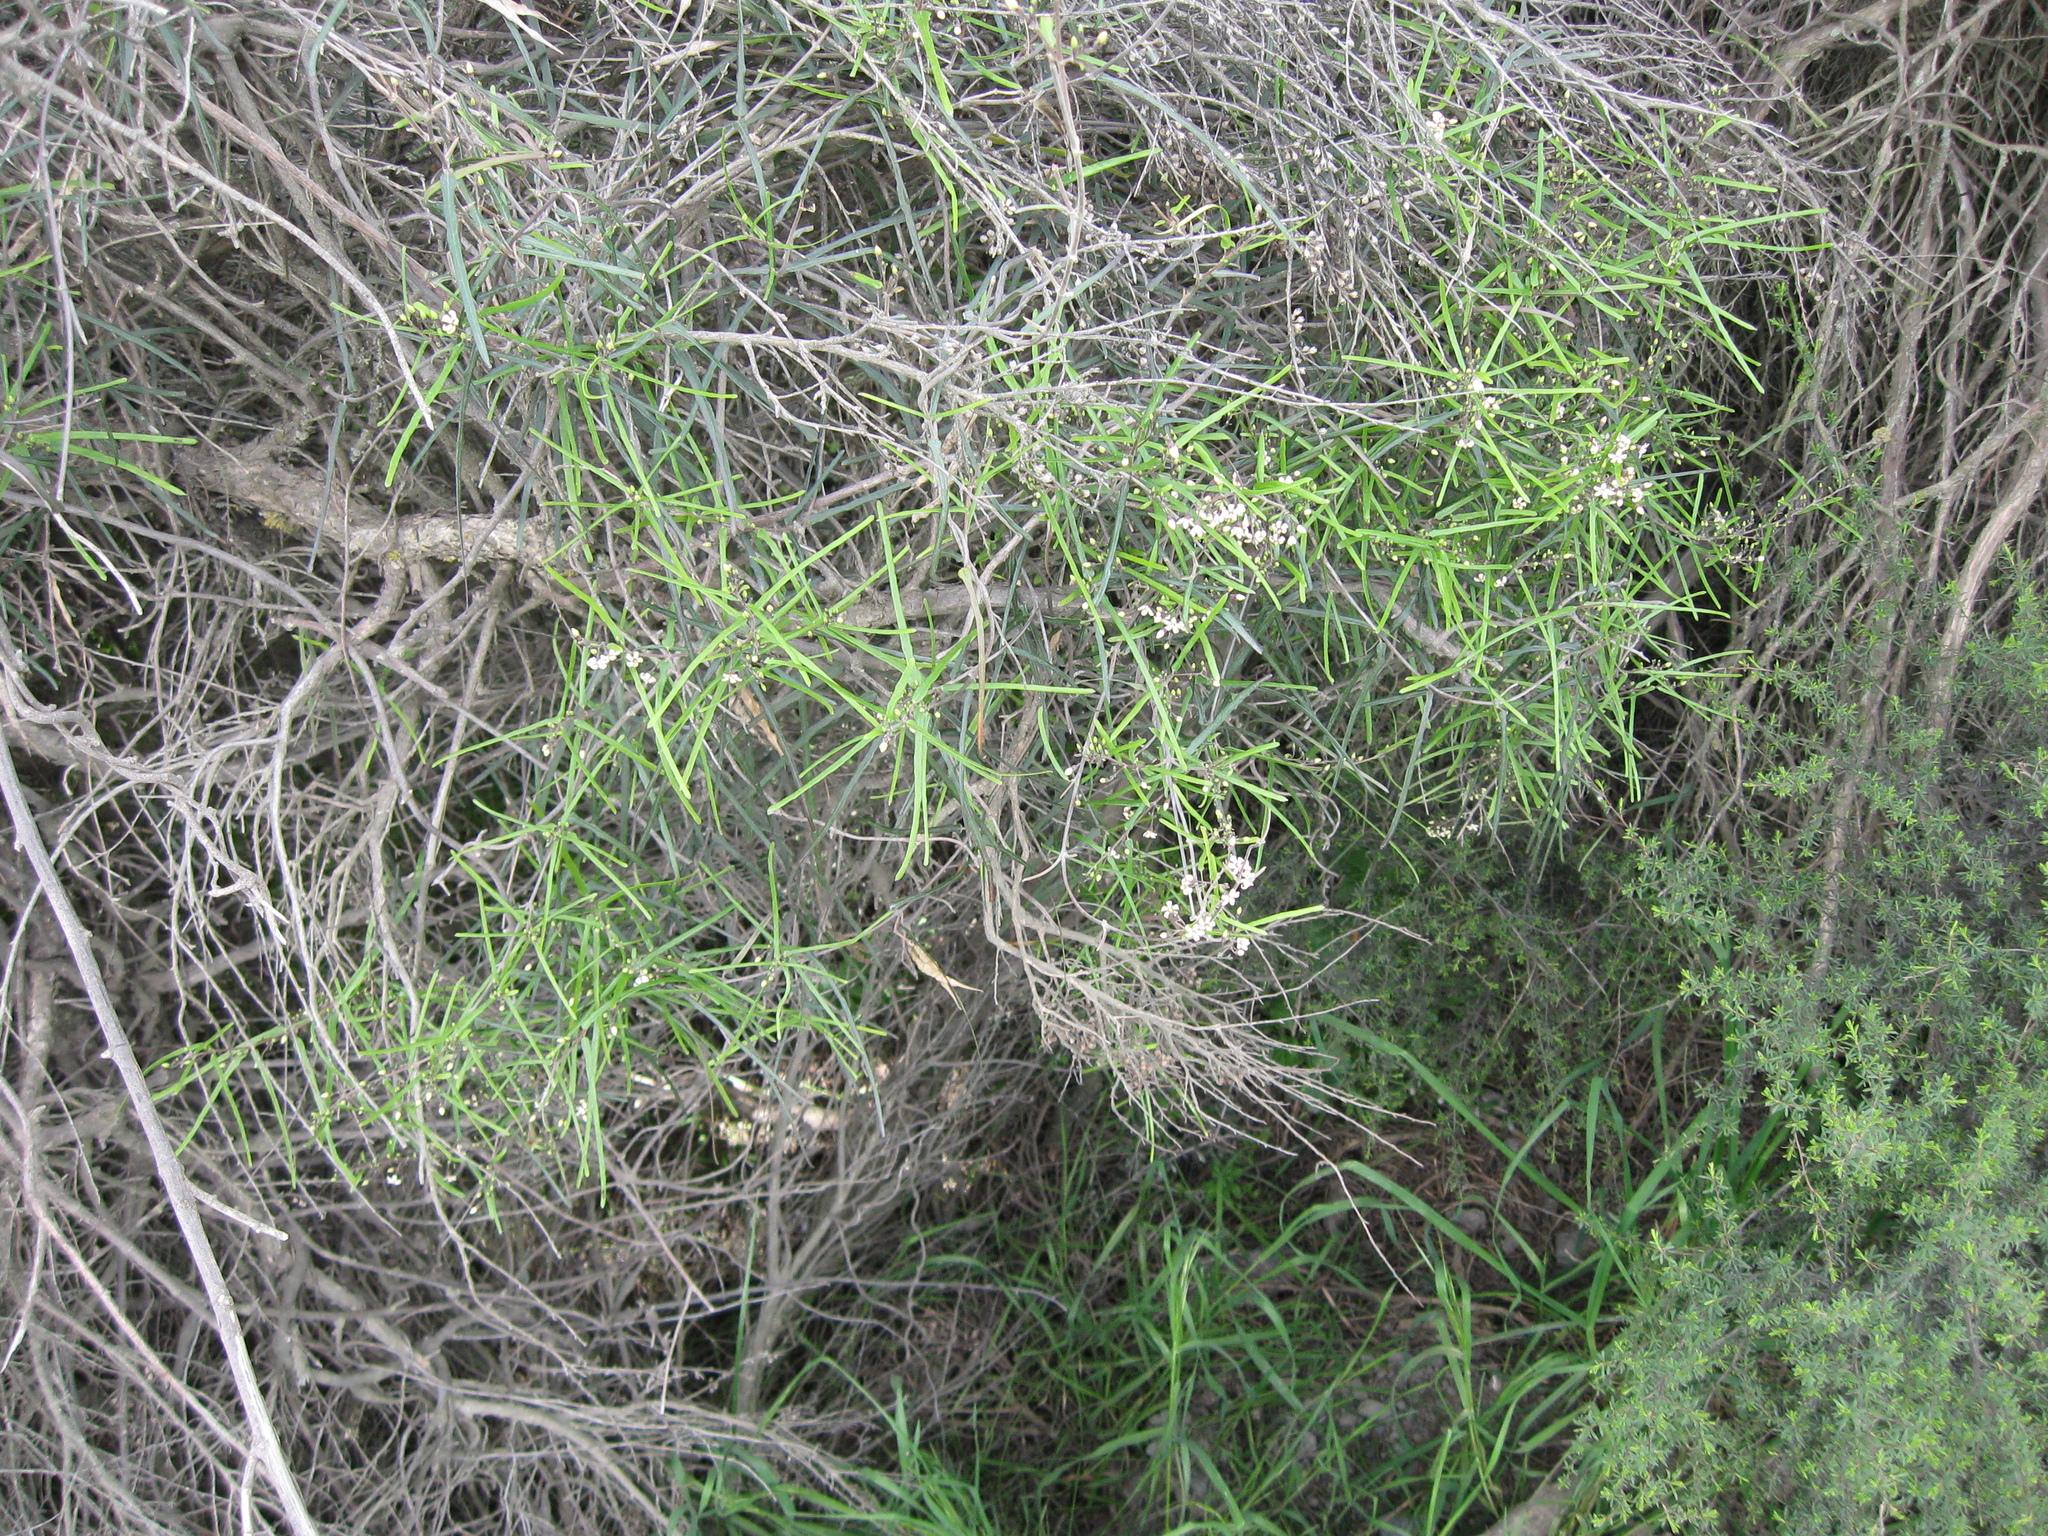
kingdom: Plantae
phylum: Tracheophyta
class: Magnoliopsida
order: Gentianales
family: Apocynaceae
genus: Parsonsia
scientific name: Parsonsia capsularis
